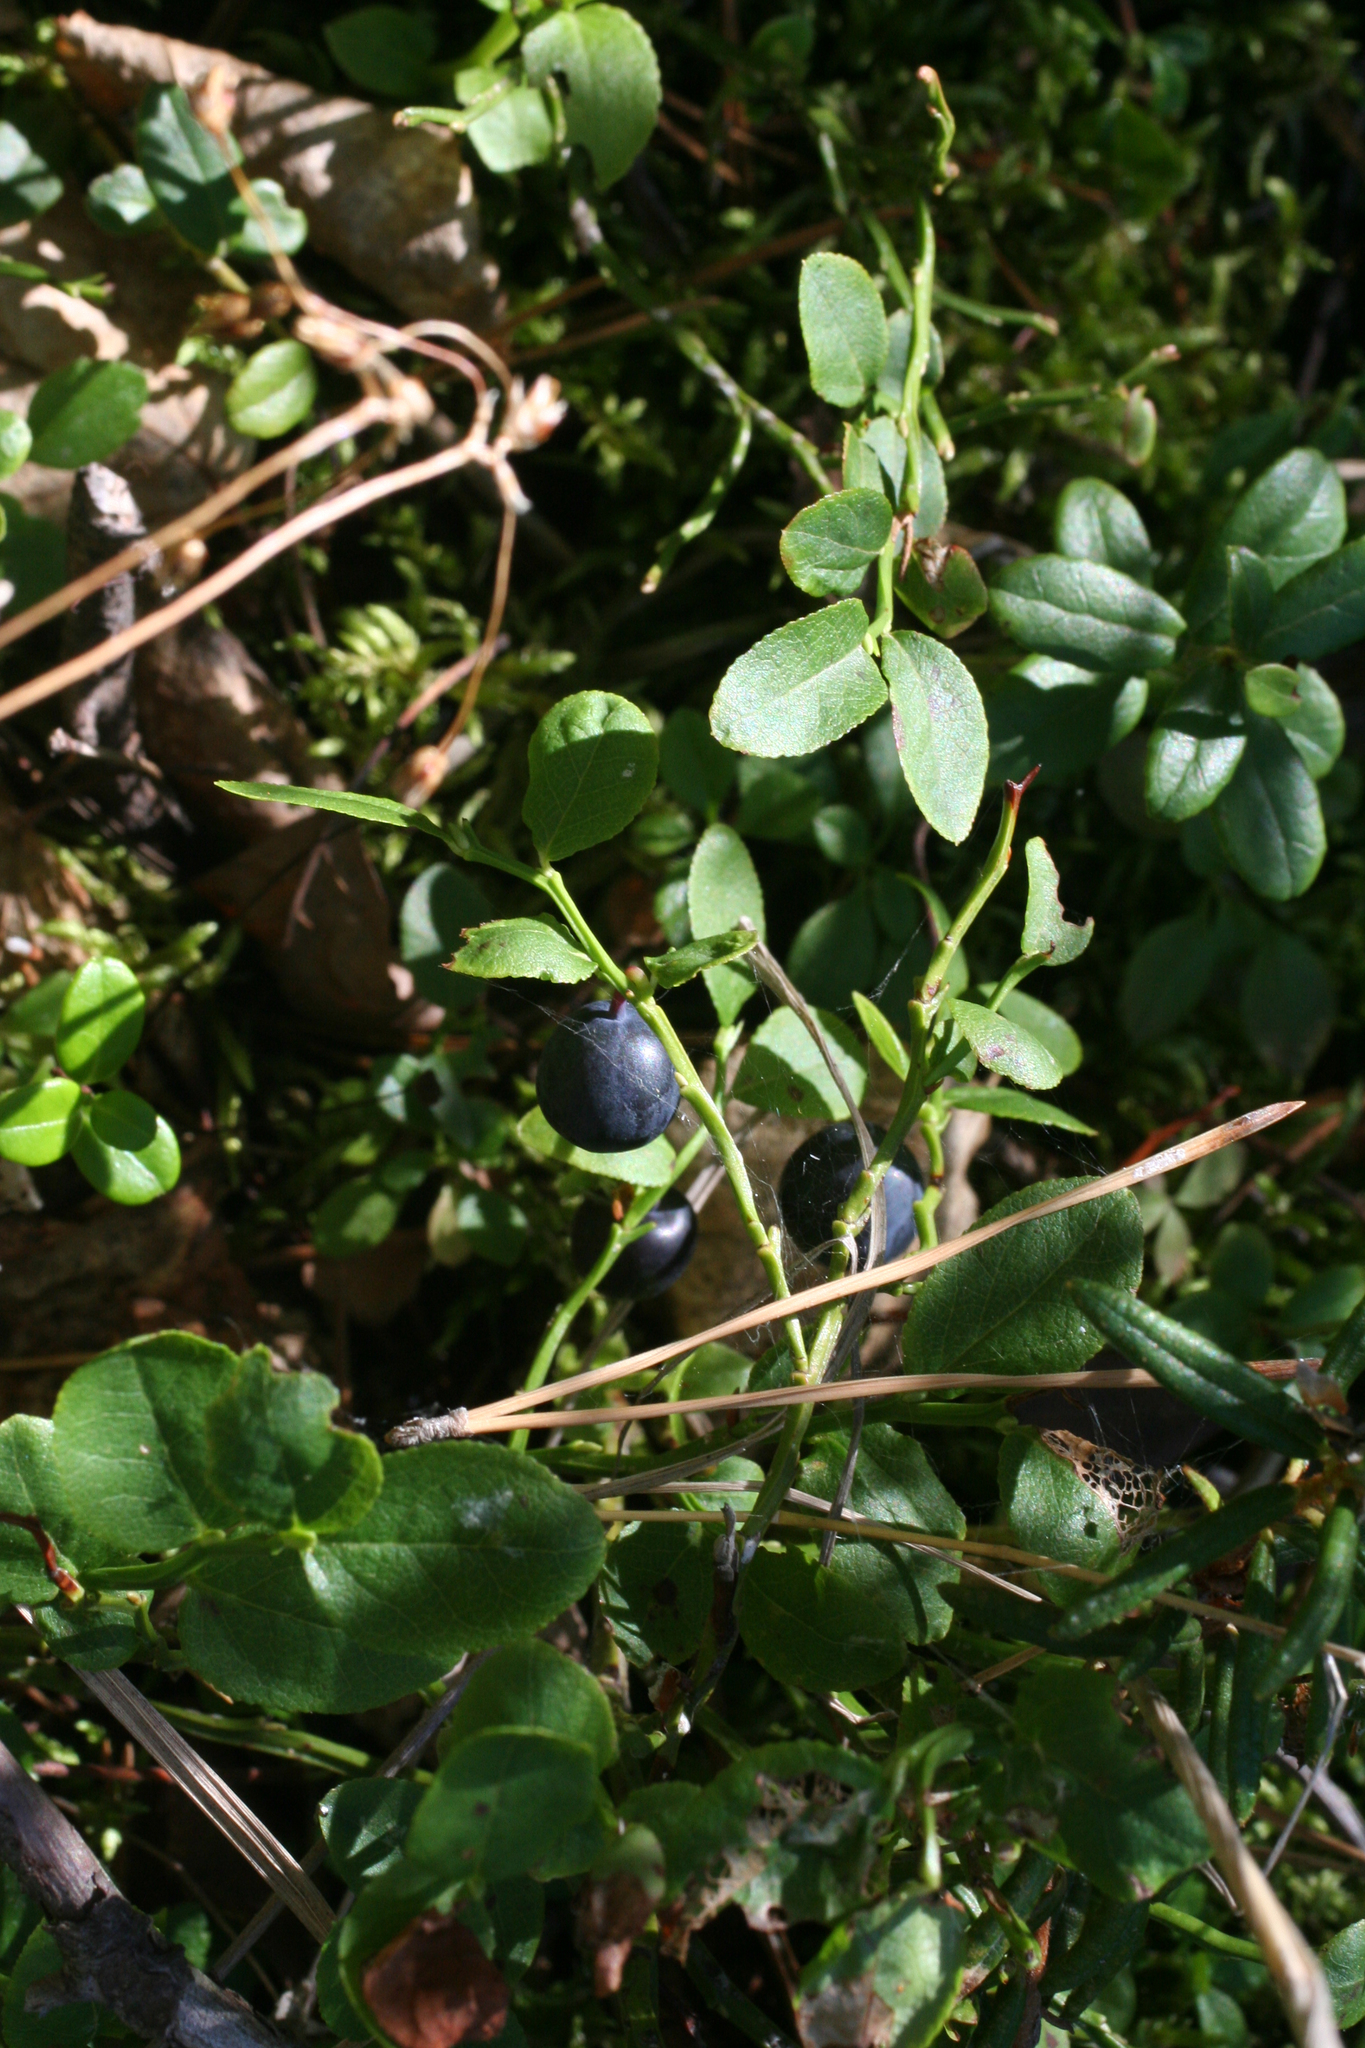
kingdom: Plantae
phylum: Tracheophyta
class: Magnoliopsida
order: Ericales
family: Ericaceae
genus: Vaccinium
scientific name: Vaccinium myrtillus
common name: Bilberry
